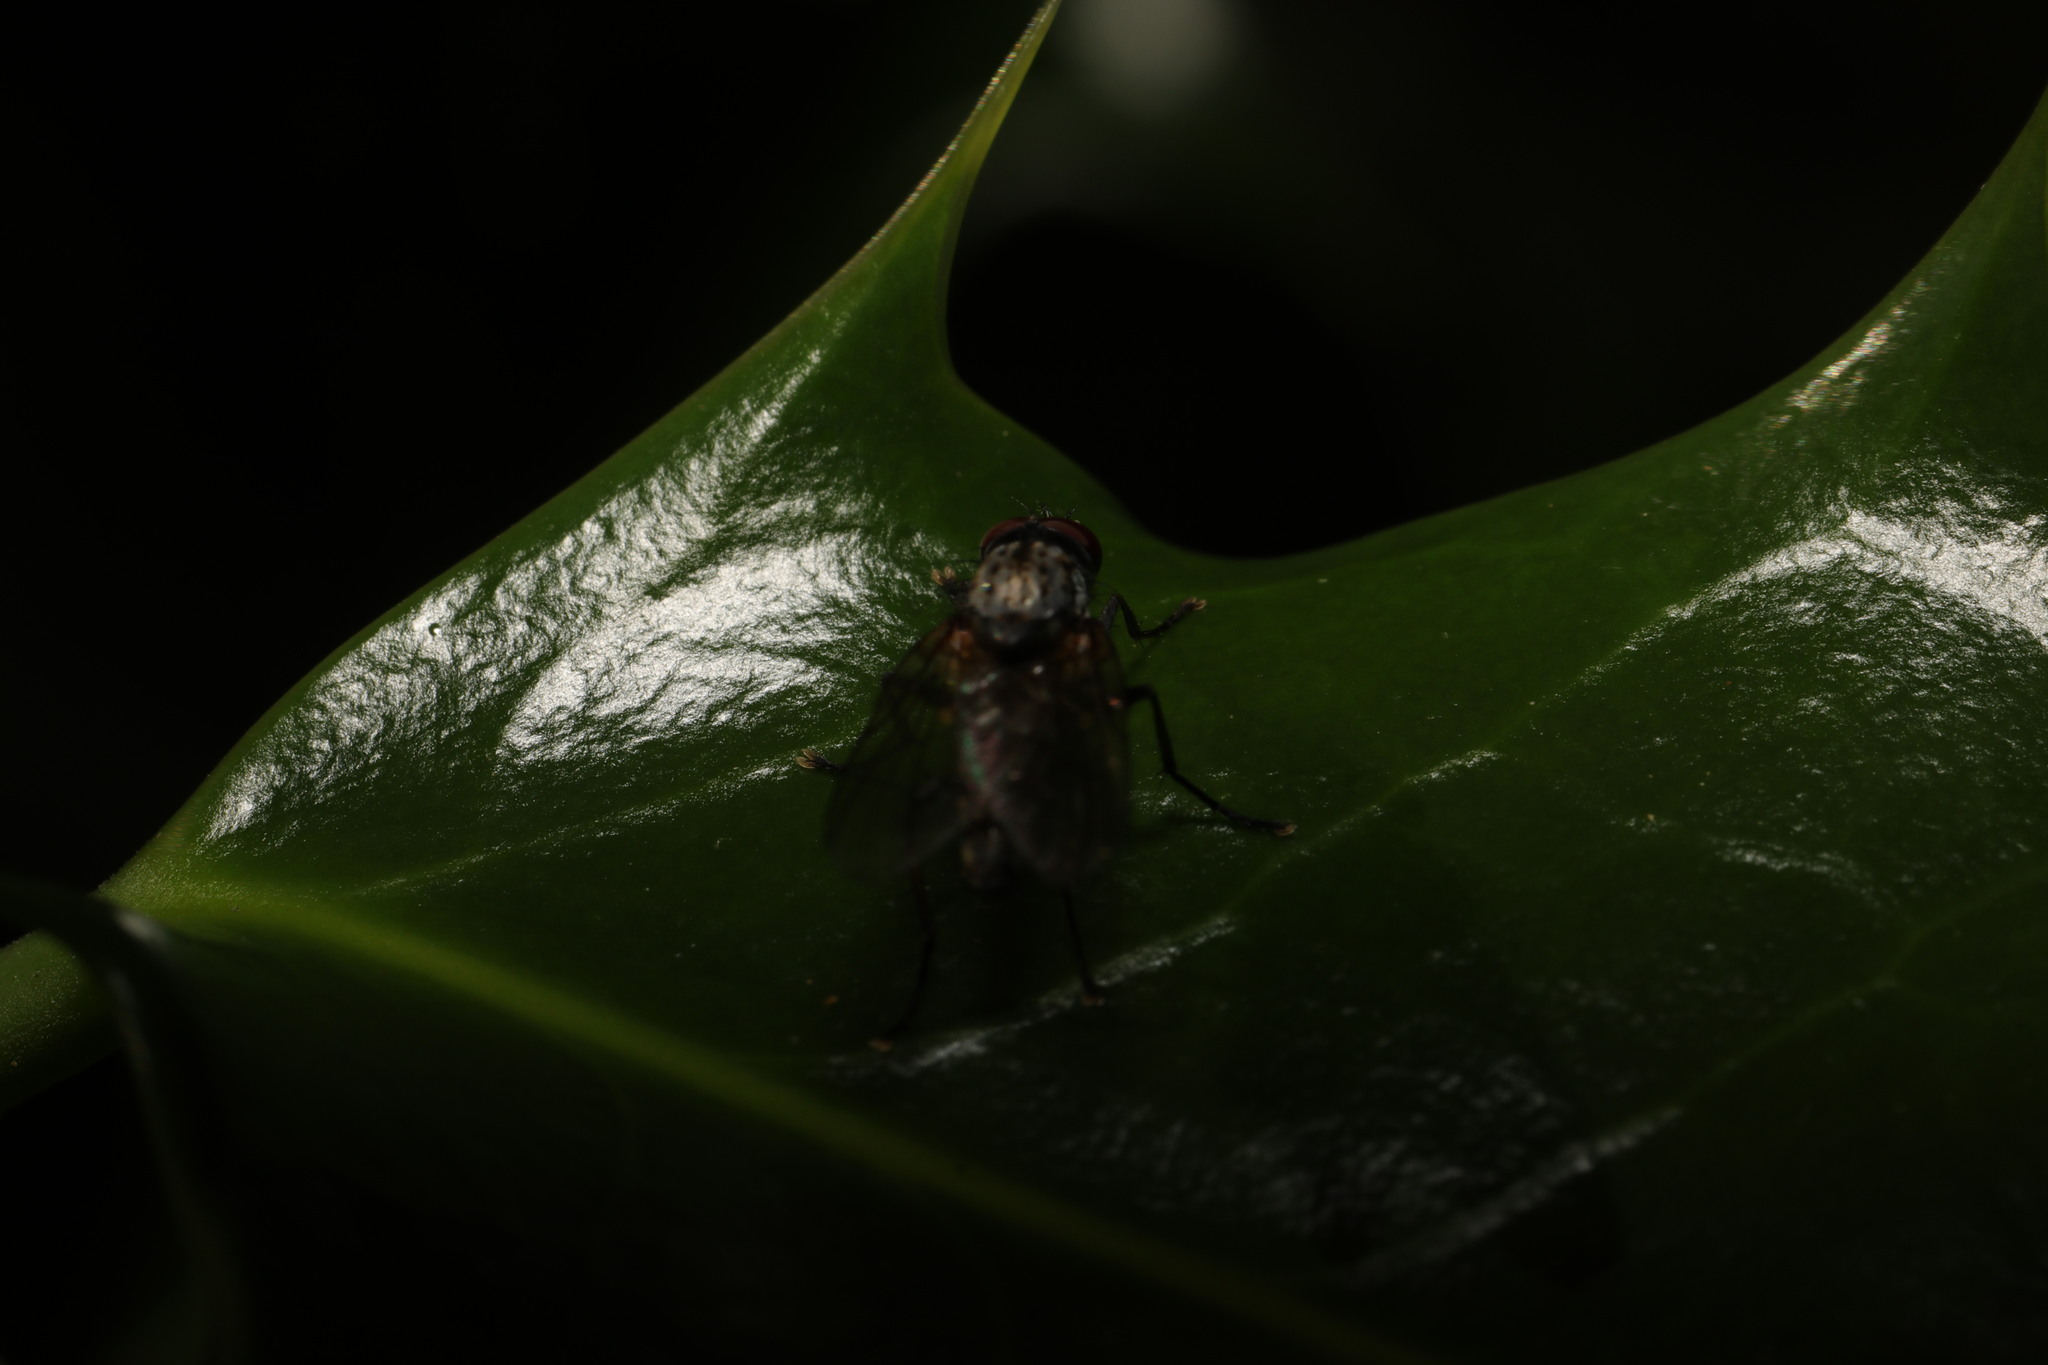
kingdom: Animalia
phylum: Arthropoda
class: Insecta
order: Diptera
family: Agromyzidae
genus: Phytomyza
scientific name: Phytomyza ilicis
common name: Holly leafminer
